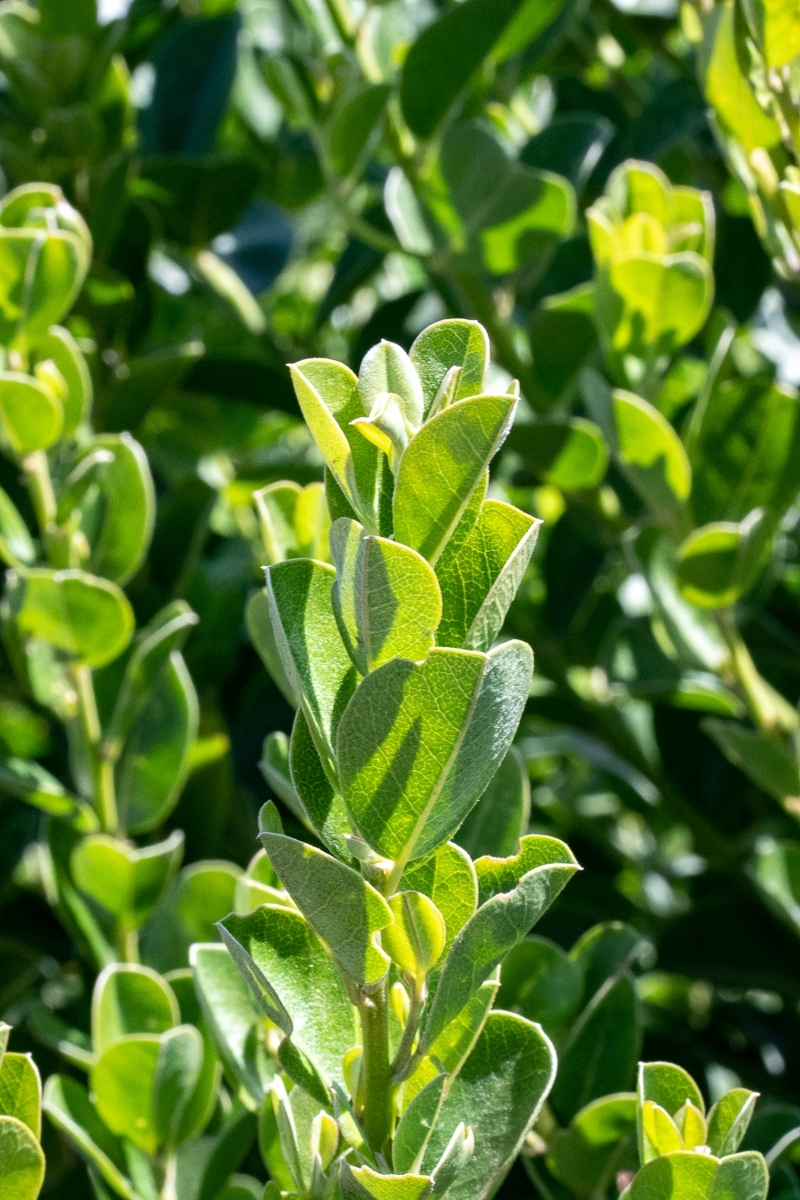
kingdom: Plantae
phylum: Tracheophyta
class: Magnoliopsida
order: Fabales
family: Fabaceae
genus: Podalyria
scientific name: Podalyria calyptrata
